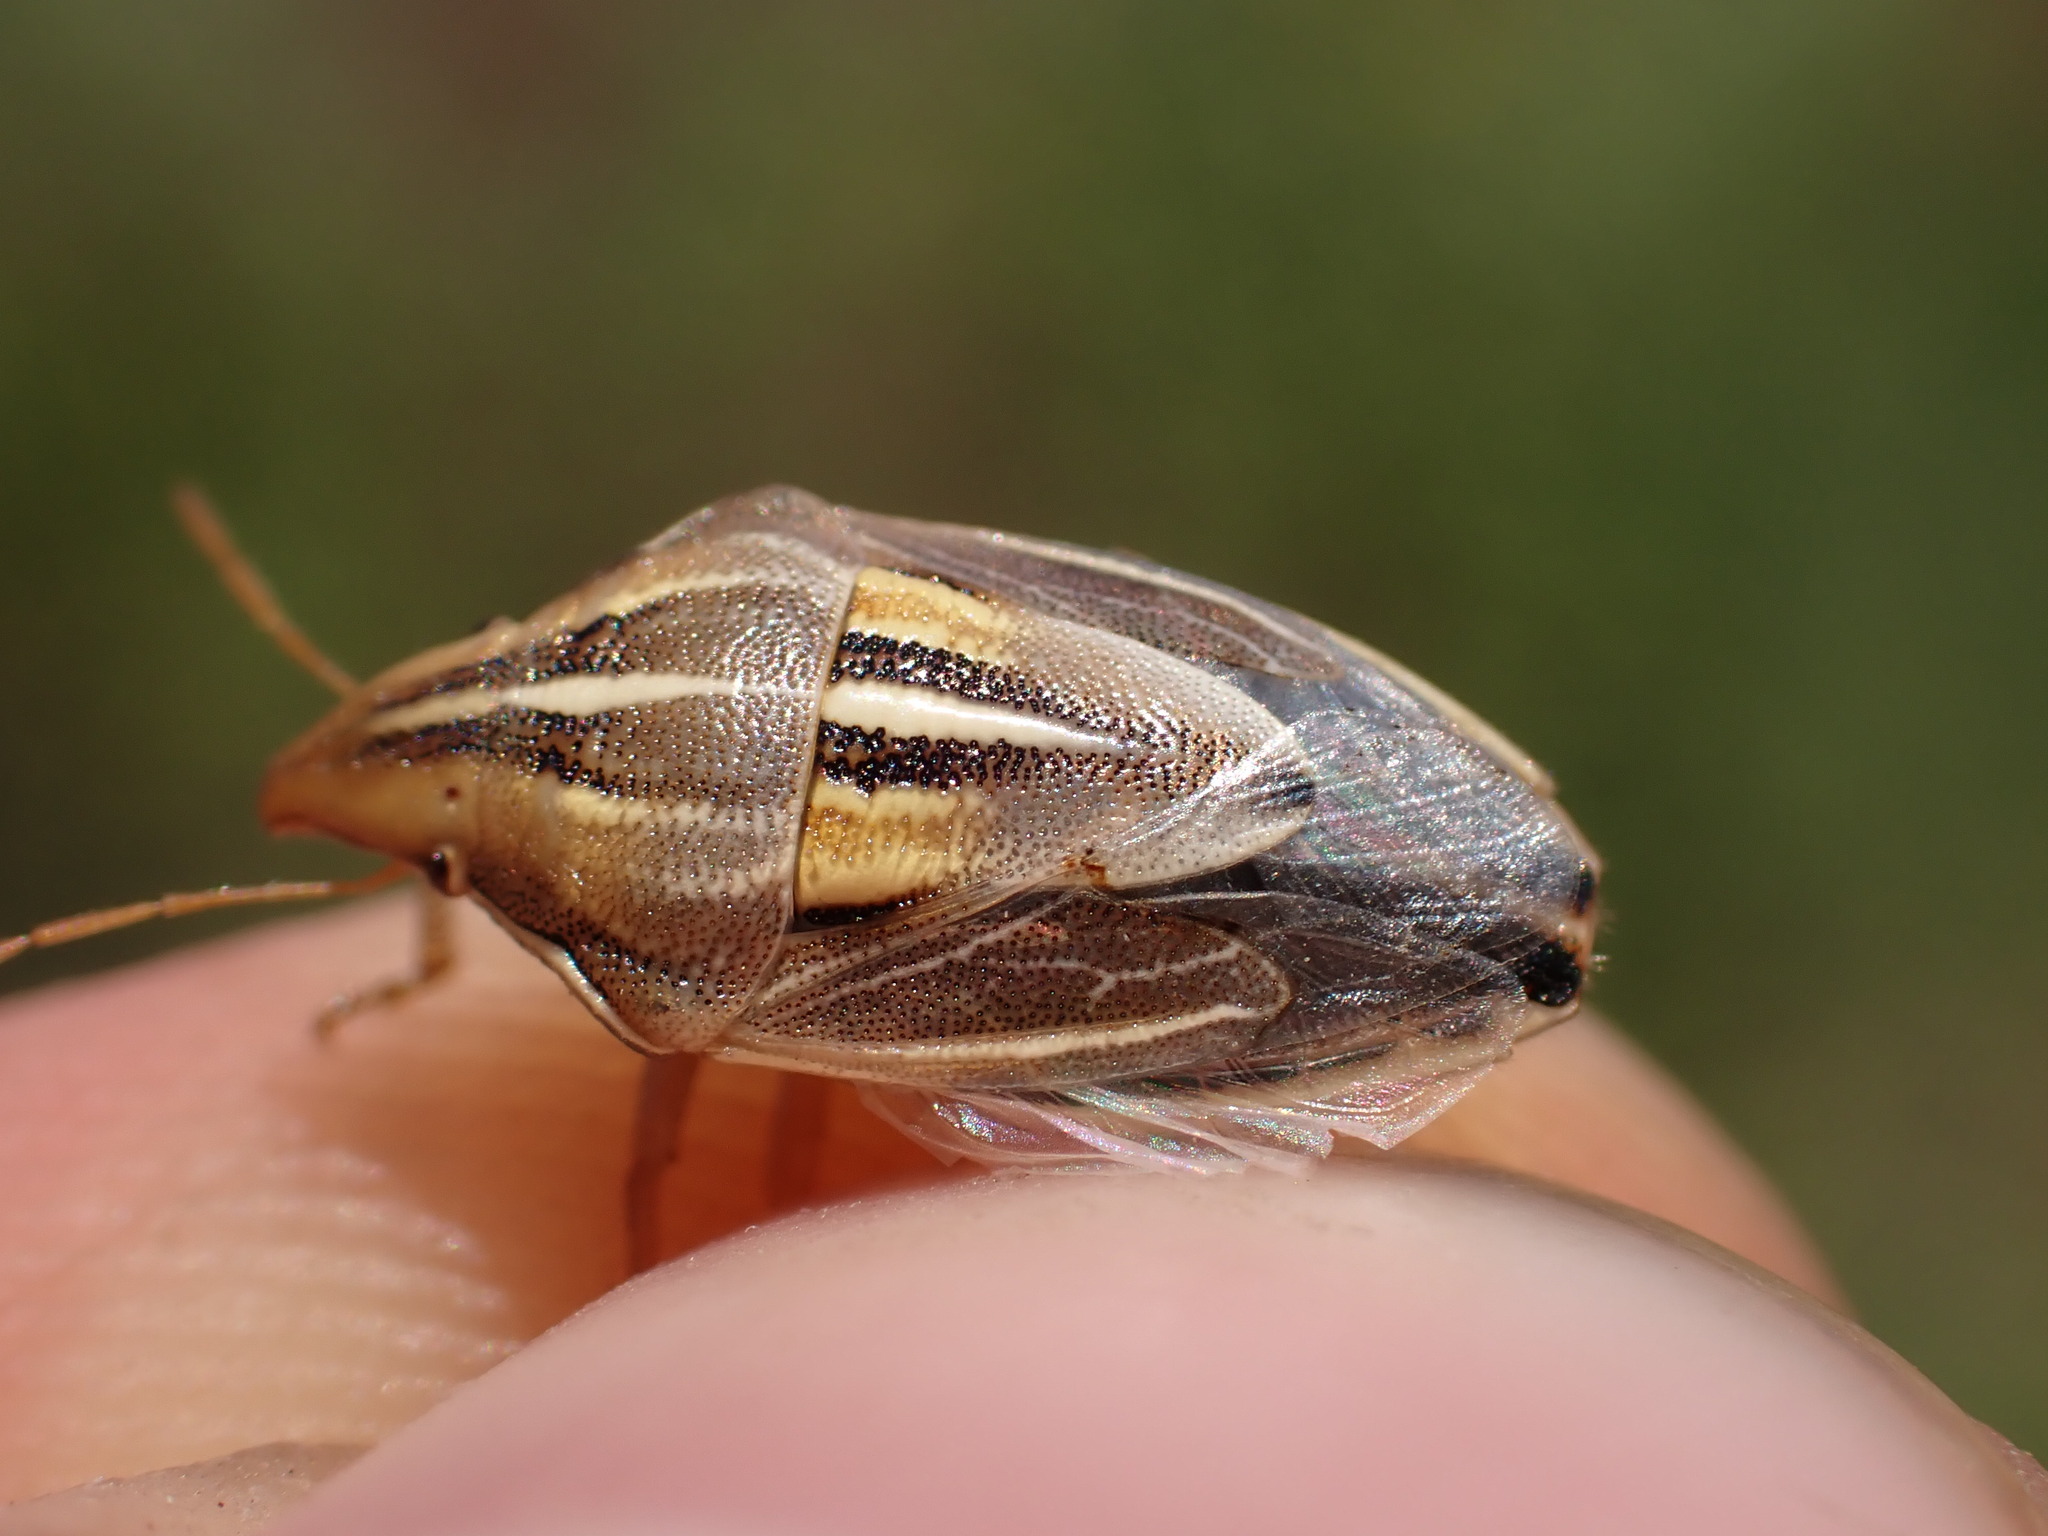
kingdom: Animalia
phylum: Arthropoda
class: Insecta
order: Hemiptera
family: Pentatomidae
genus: Aelia
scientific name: Aelia rostrata
